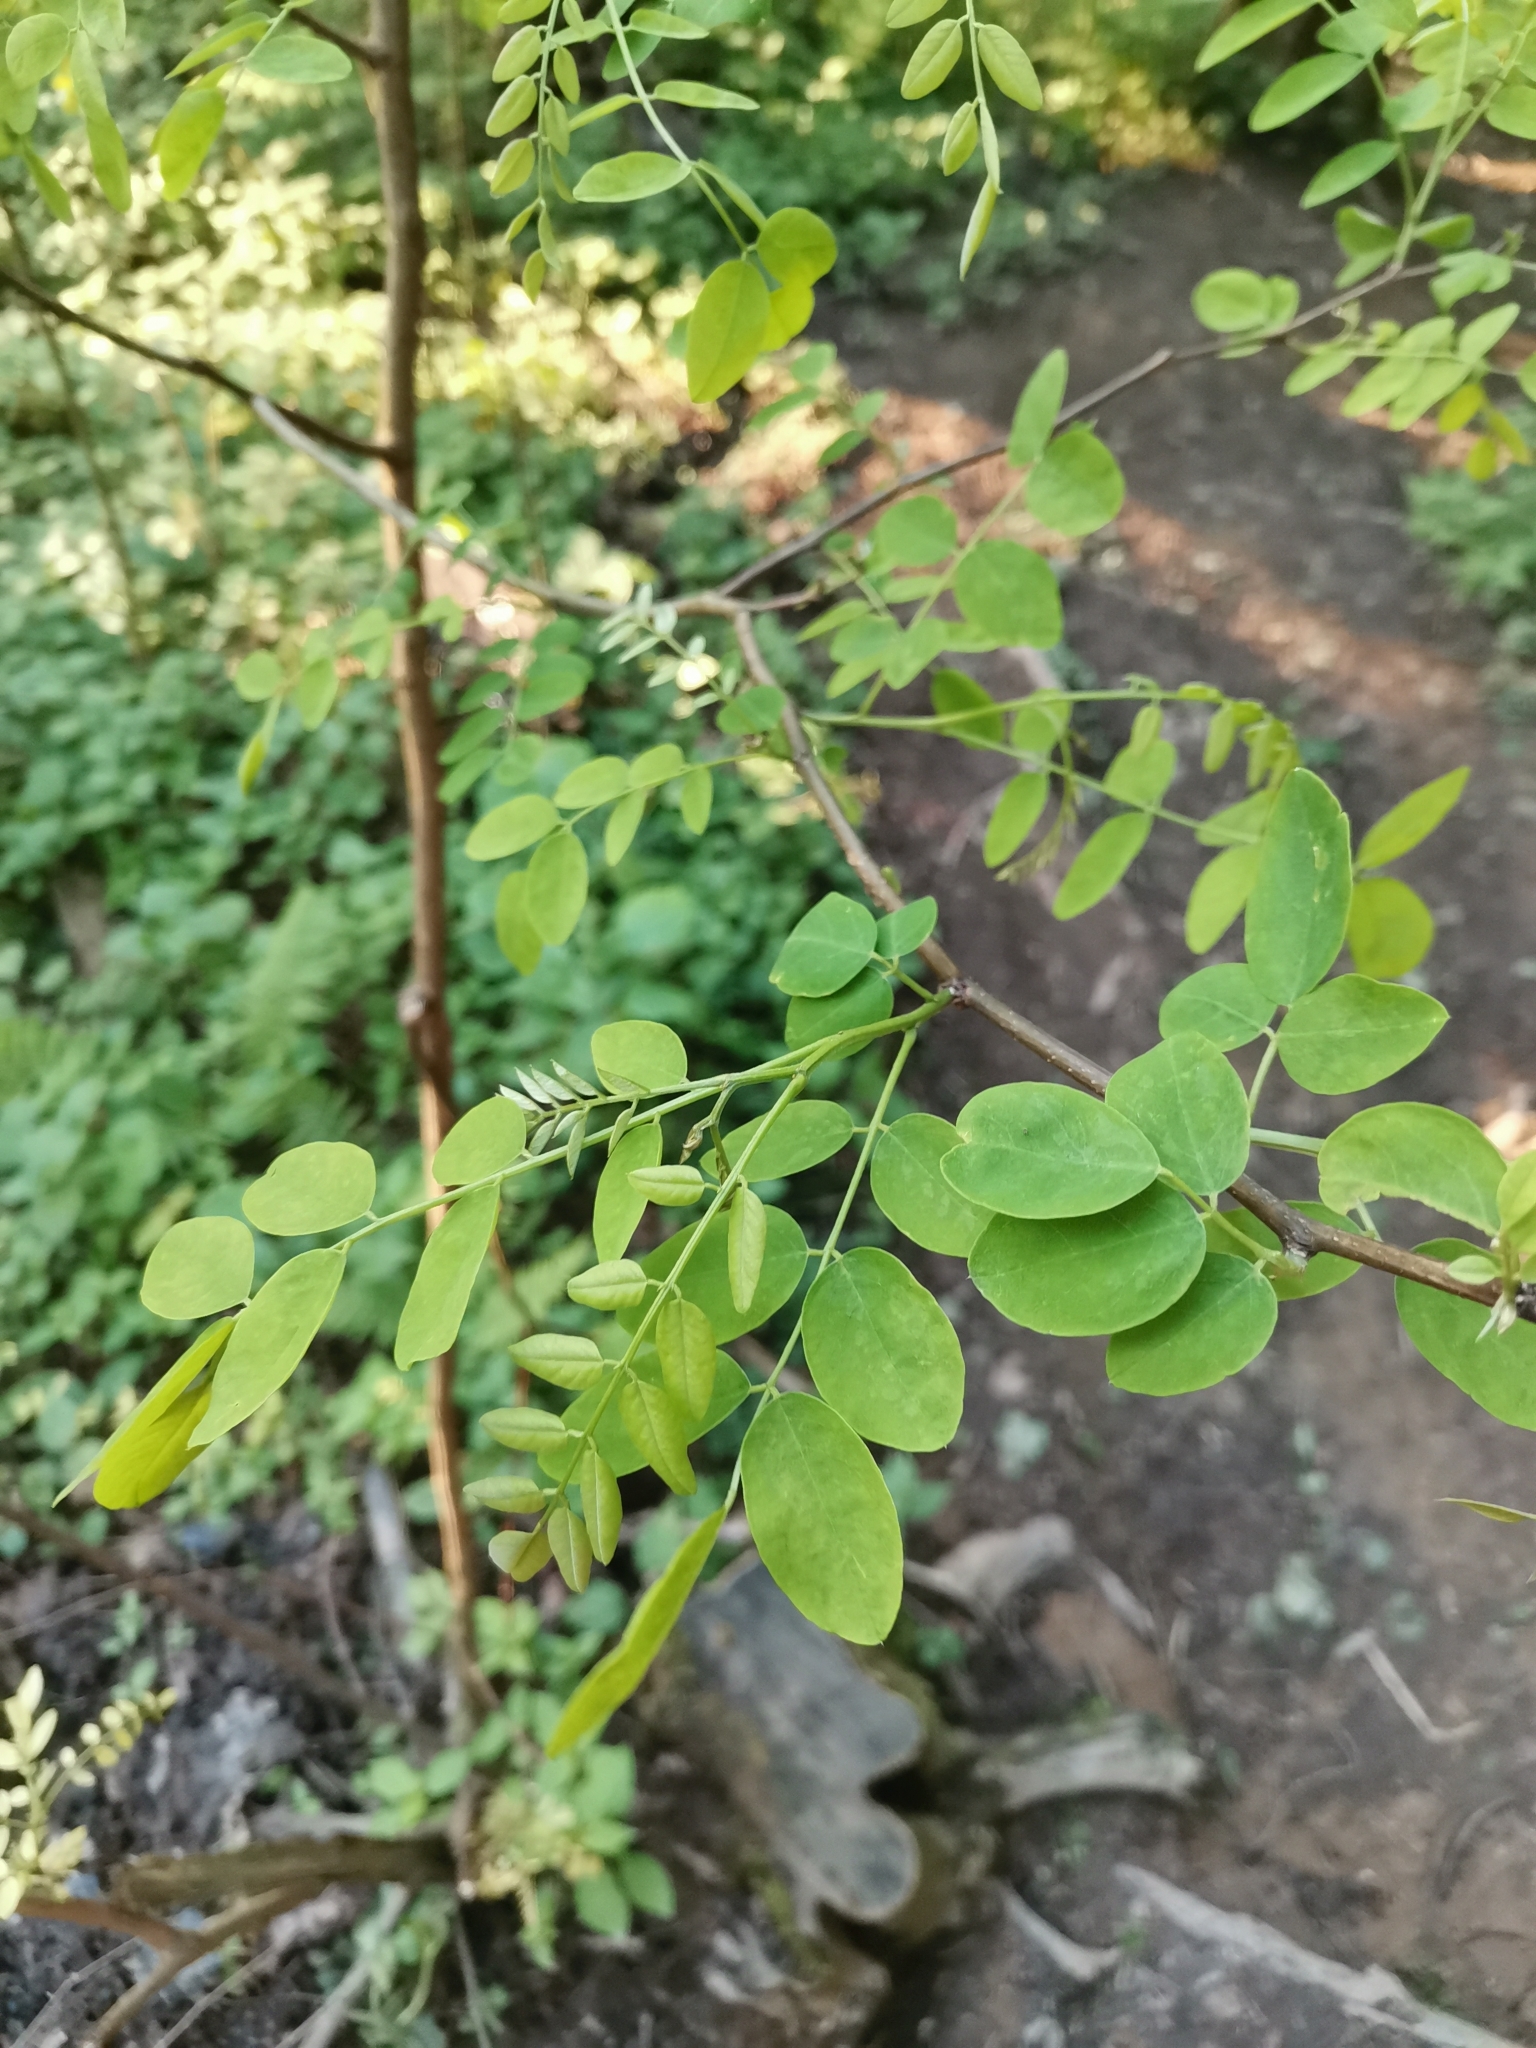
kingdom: Plantae
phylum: Tracheophyta
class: Magnoliopsida
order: Fabales
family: Fabaceae
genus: Robinia
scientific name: Robinia pseudoacacia
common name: Black locust
